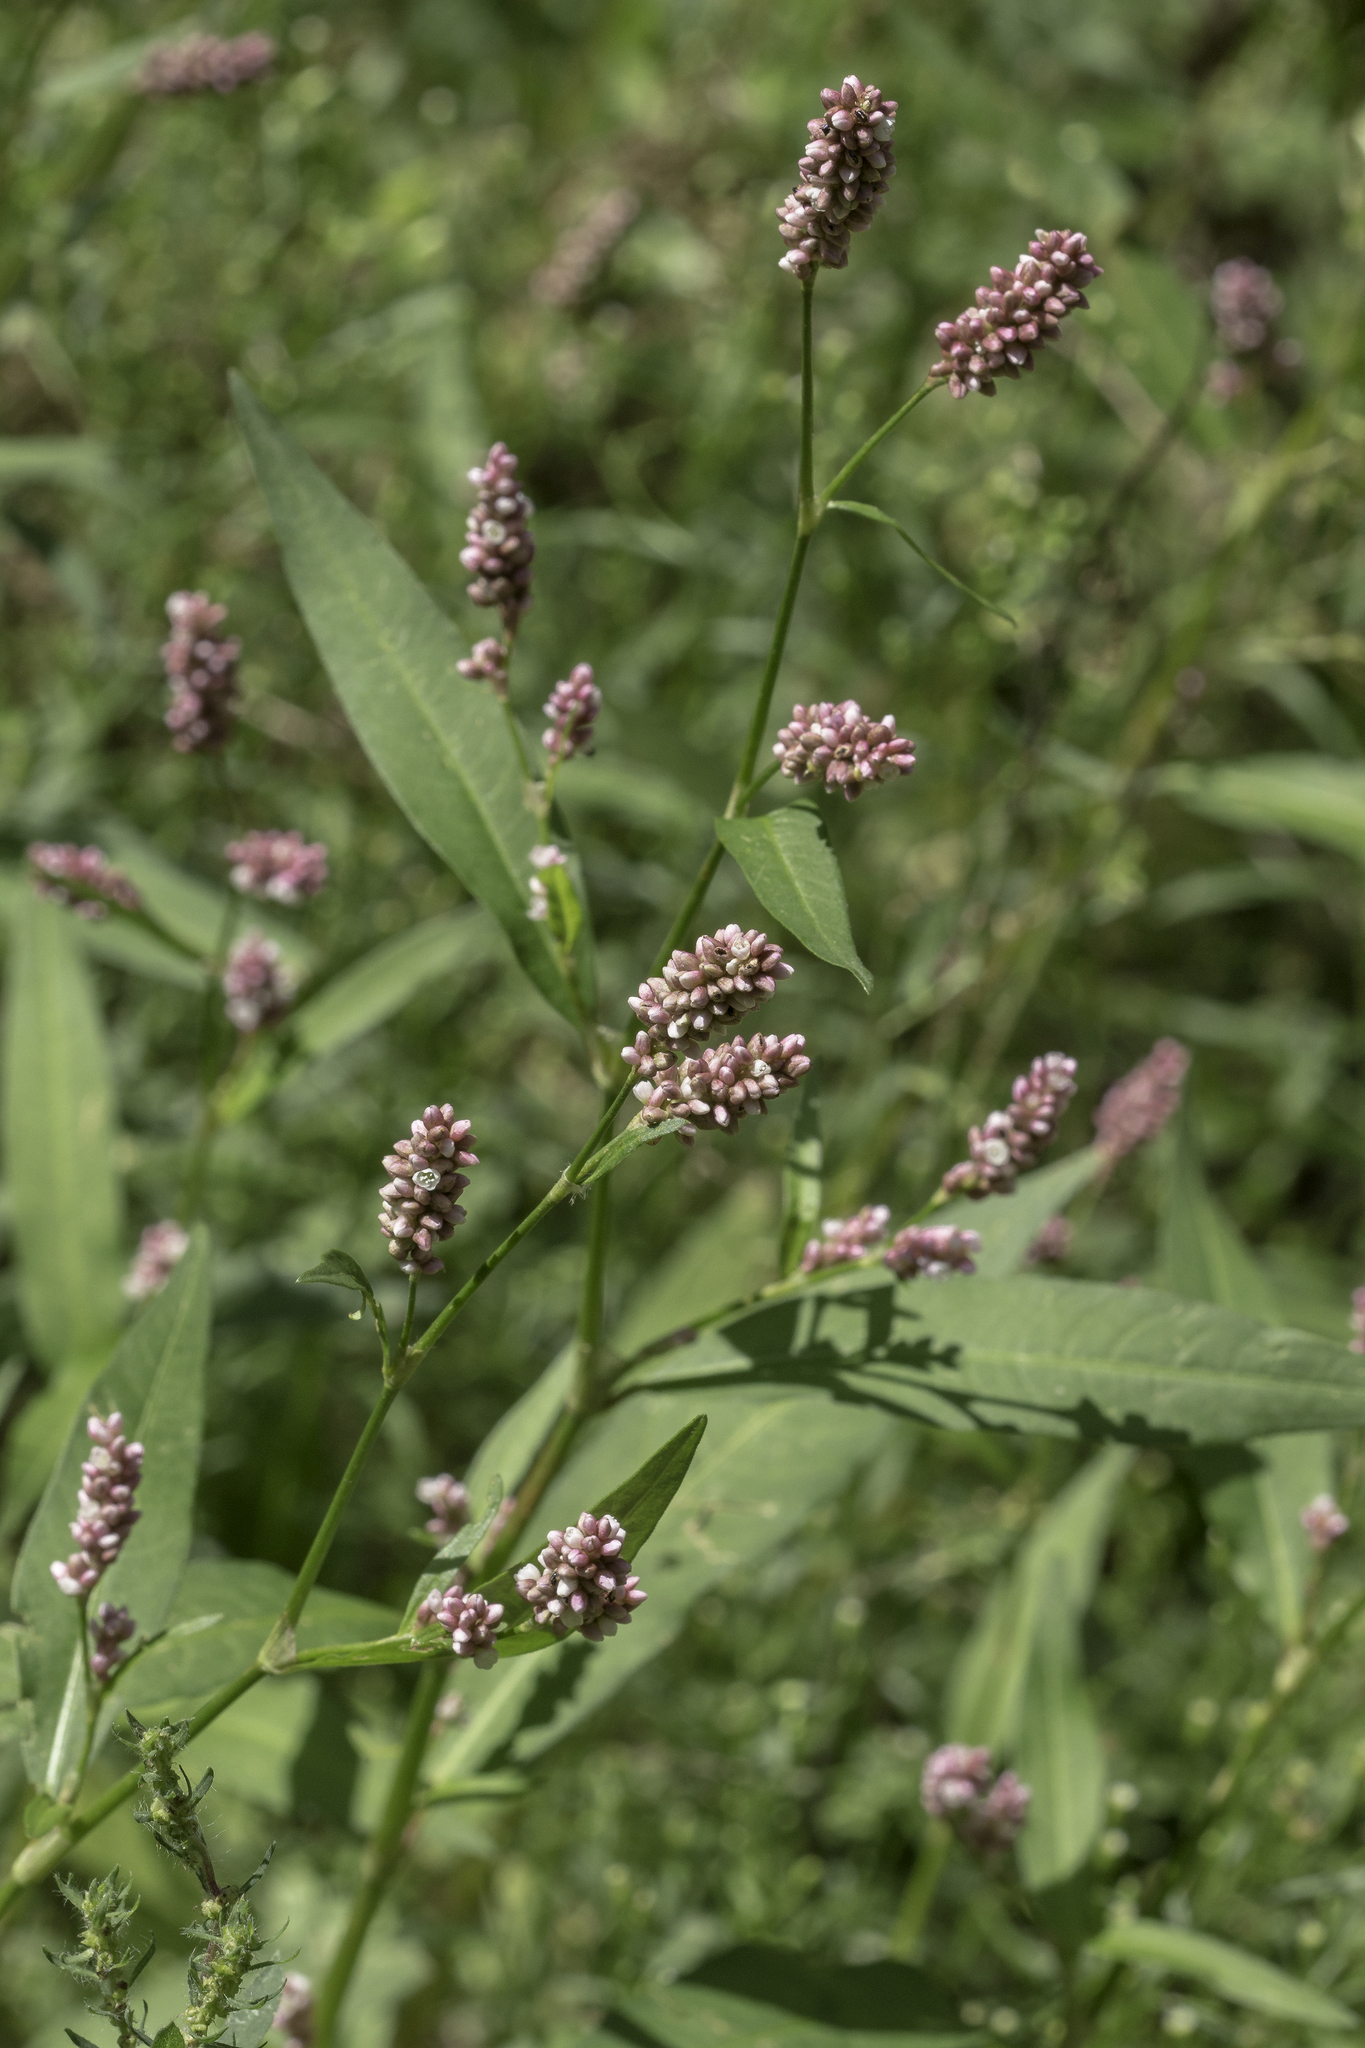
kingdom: Plantae
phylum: Tracheophyta
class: Magnoliopsida
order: Caryophyllales
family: Polygonaceae
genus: Persicaria
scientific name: Persicaria maculosa
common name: Redshank
